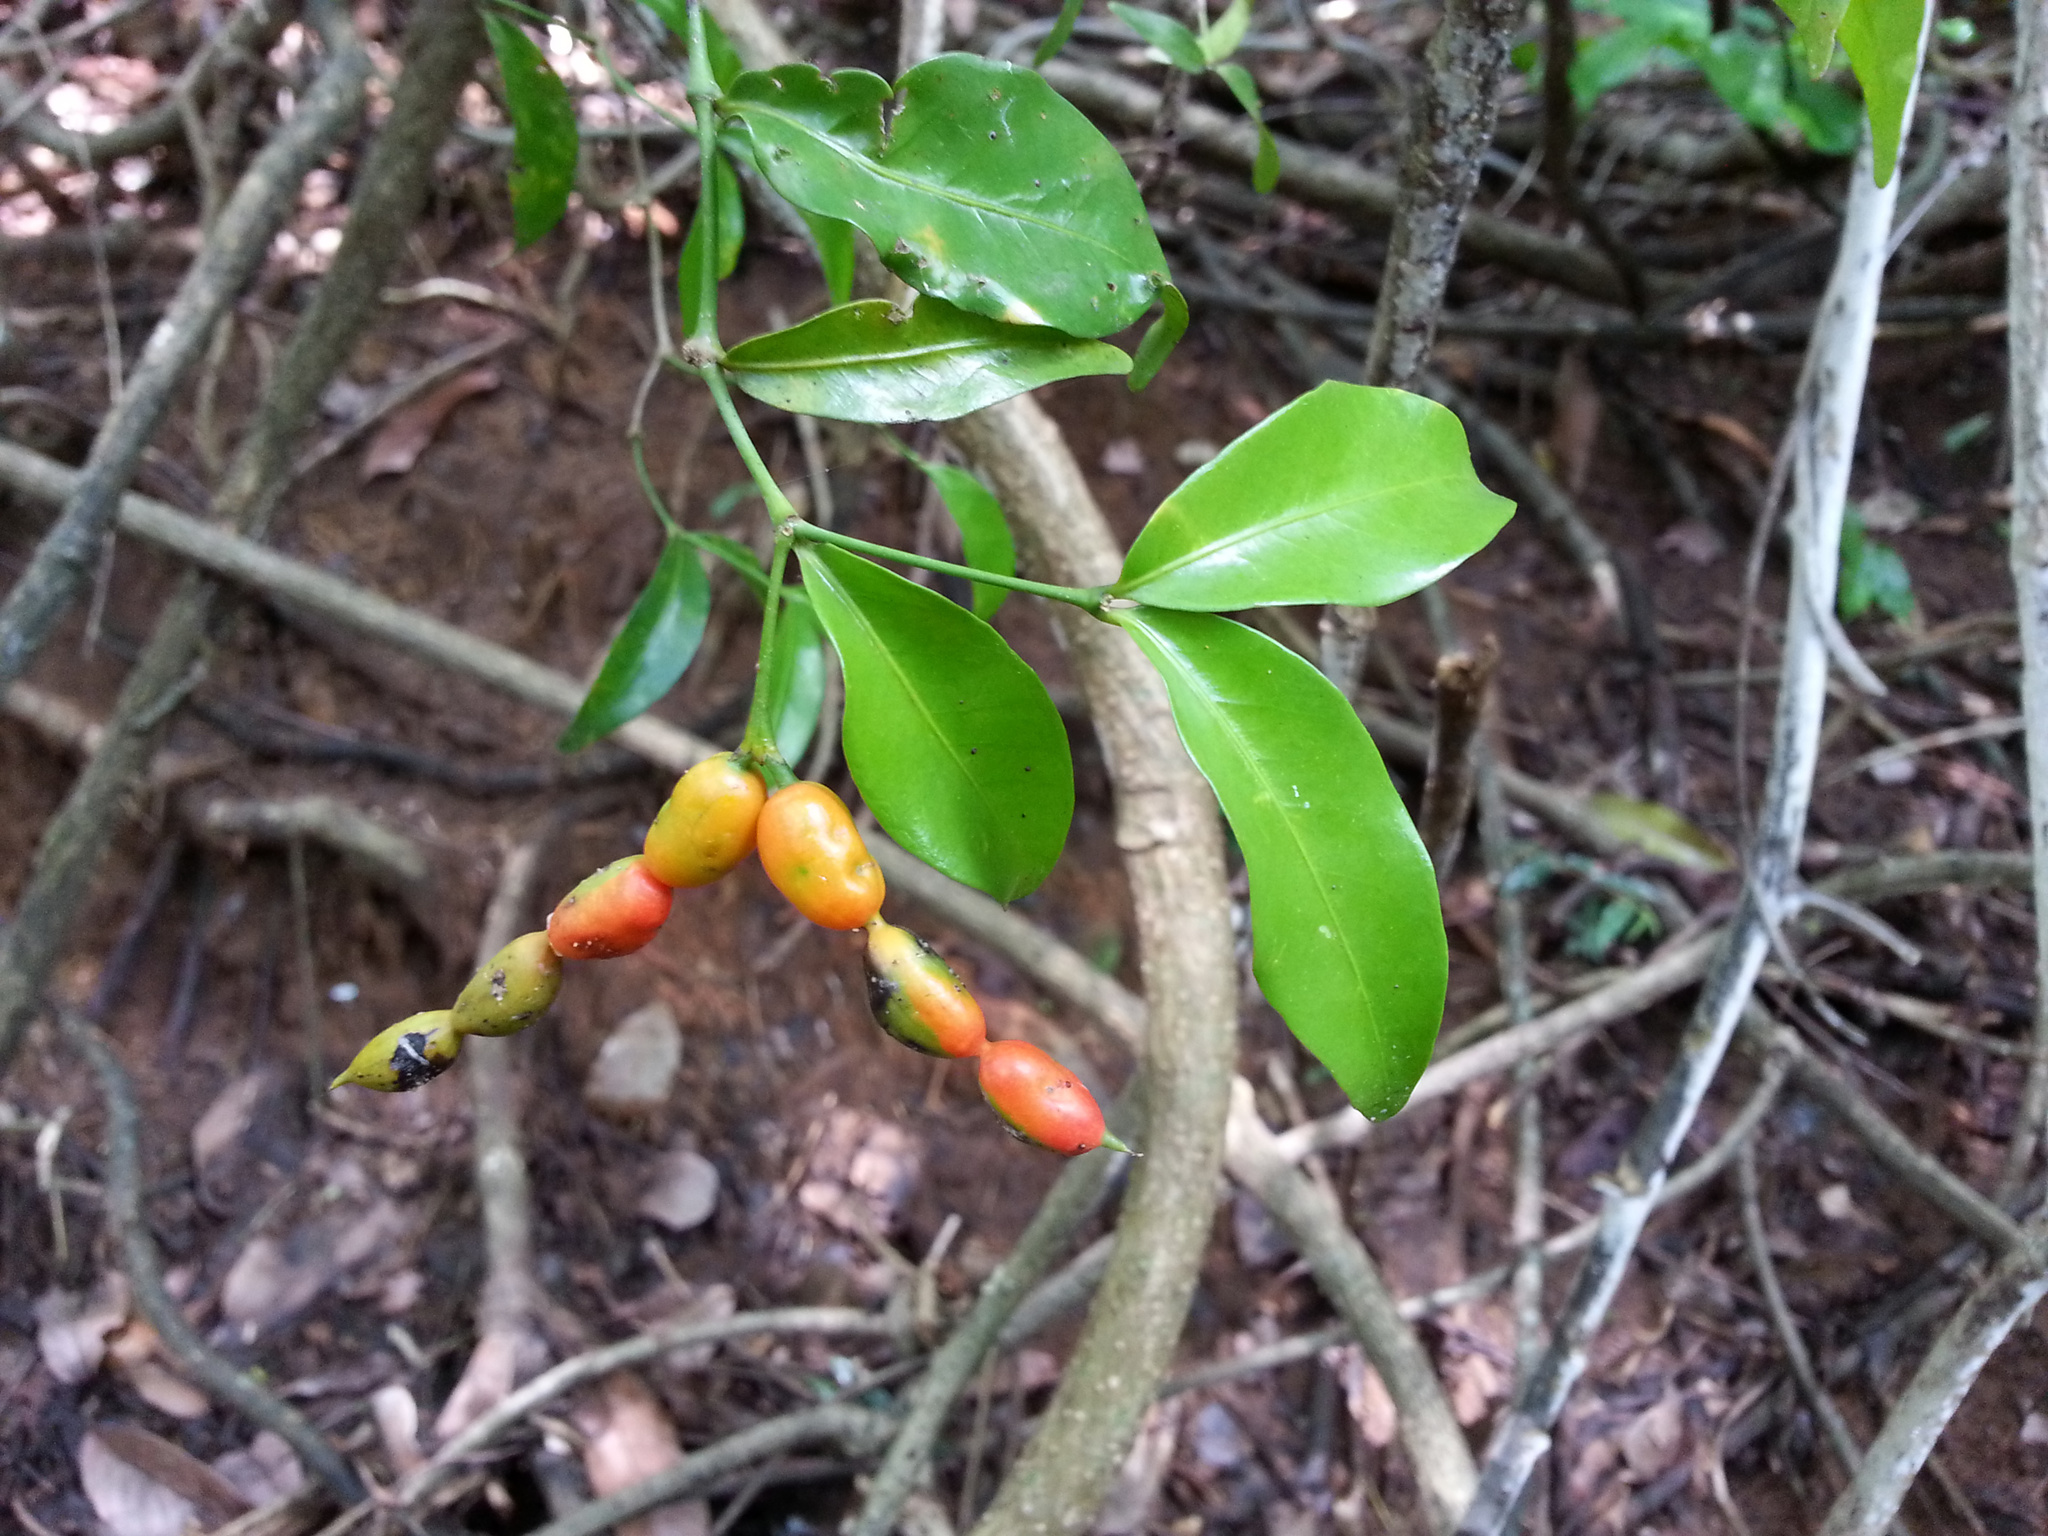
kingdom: Plantae
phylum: Tracheophyta
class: Magnoliopsida
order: Gentianales
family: Apocynaceae
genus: Petchia
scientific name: Petchia erythrocarpa
